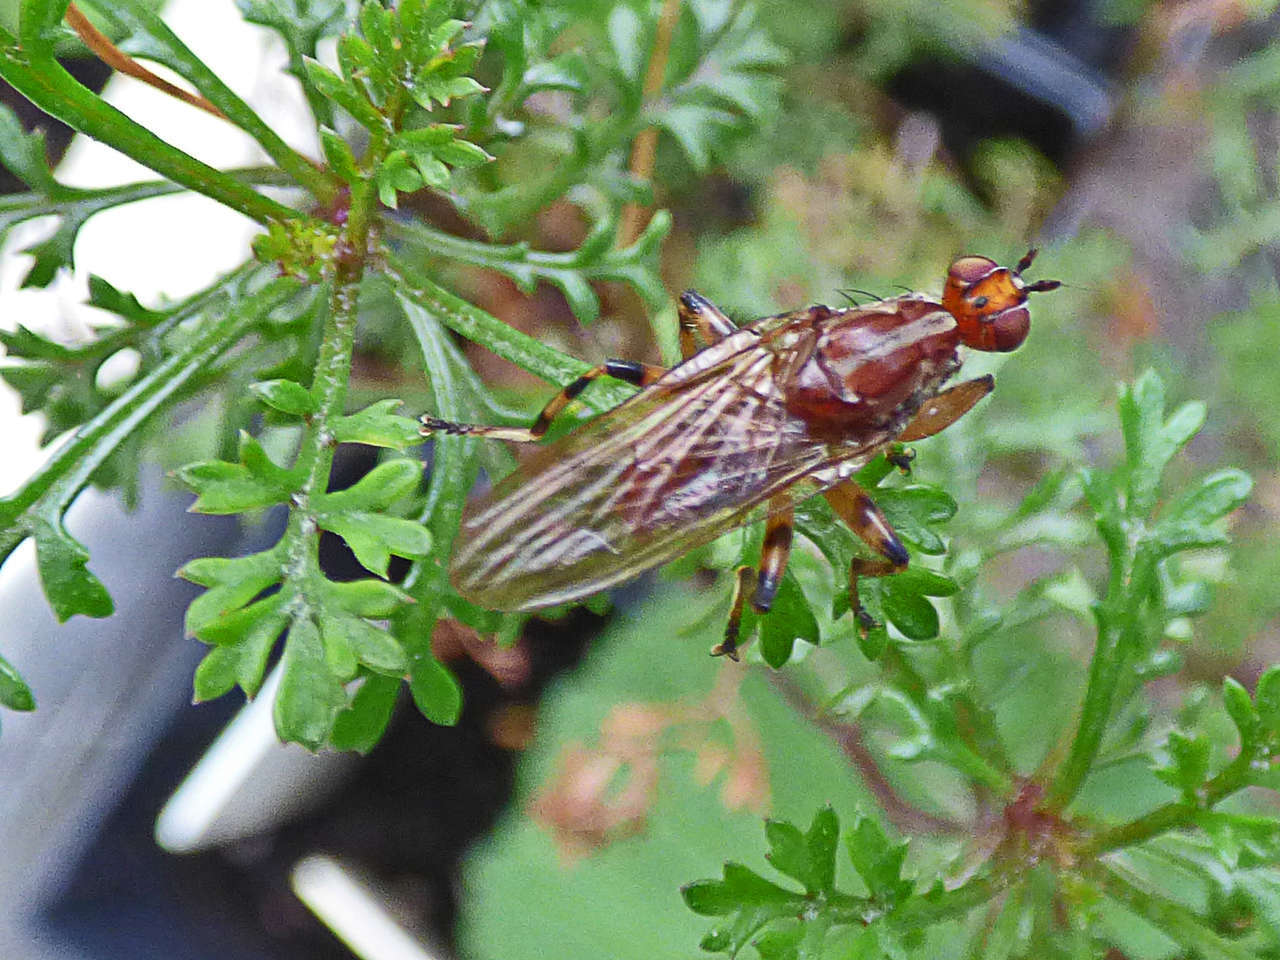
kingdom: Animalia
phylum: Arthropoda
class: Insecta
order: Diptera
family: Heleomyzidae
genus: Tapeigaster
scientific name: Tapeigaster annulipes
